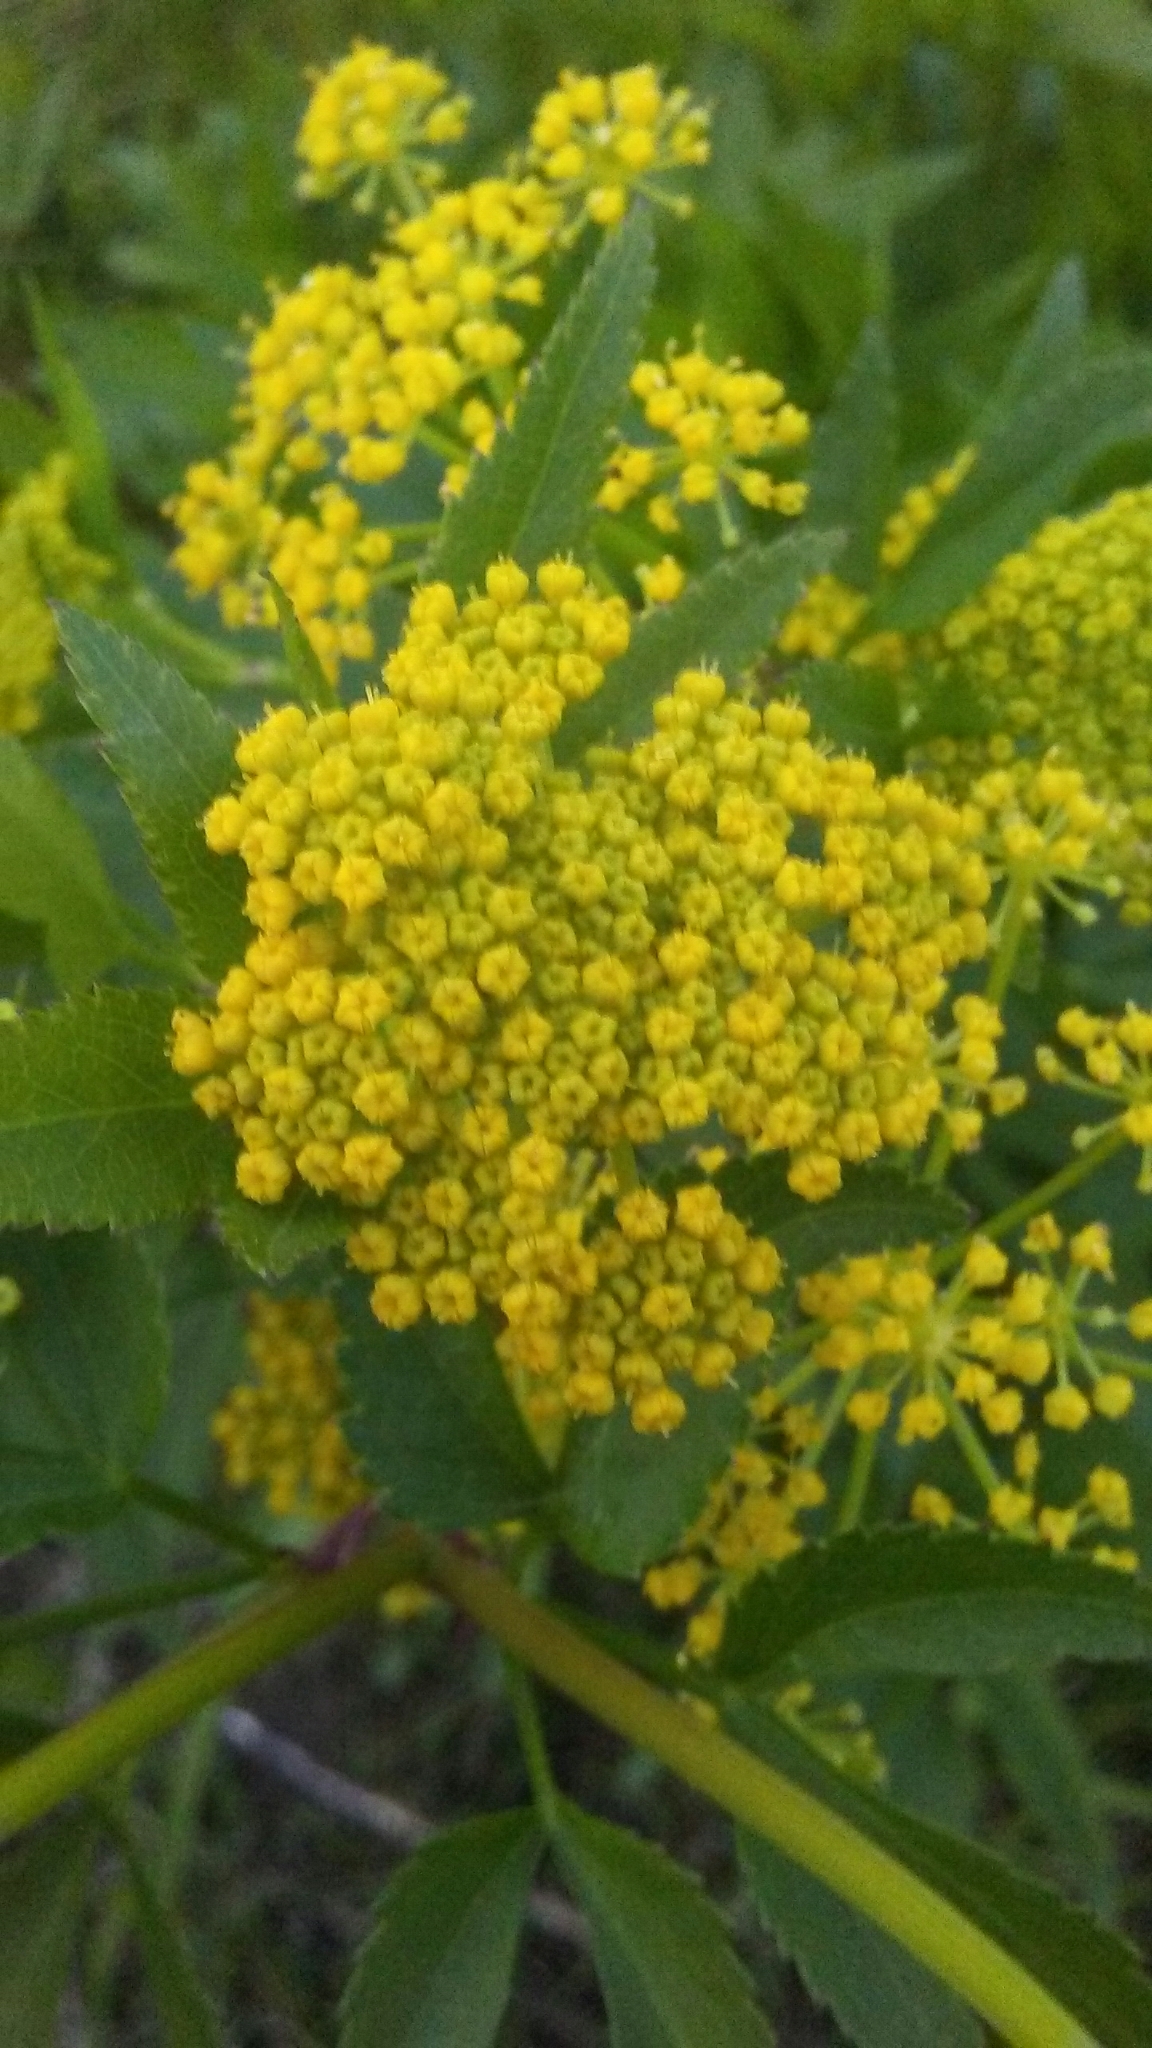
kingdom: Plantae
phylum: Tracheophyta
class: Magnoliopsida
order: Apiales
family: Apiaceae
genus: Zizia
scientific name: Zizia aurea
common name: Golden alexanders
